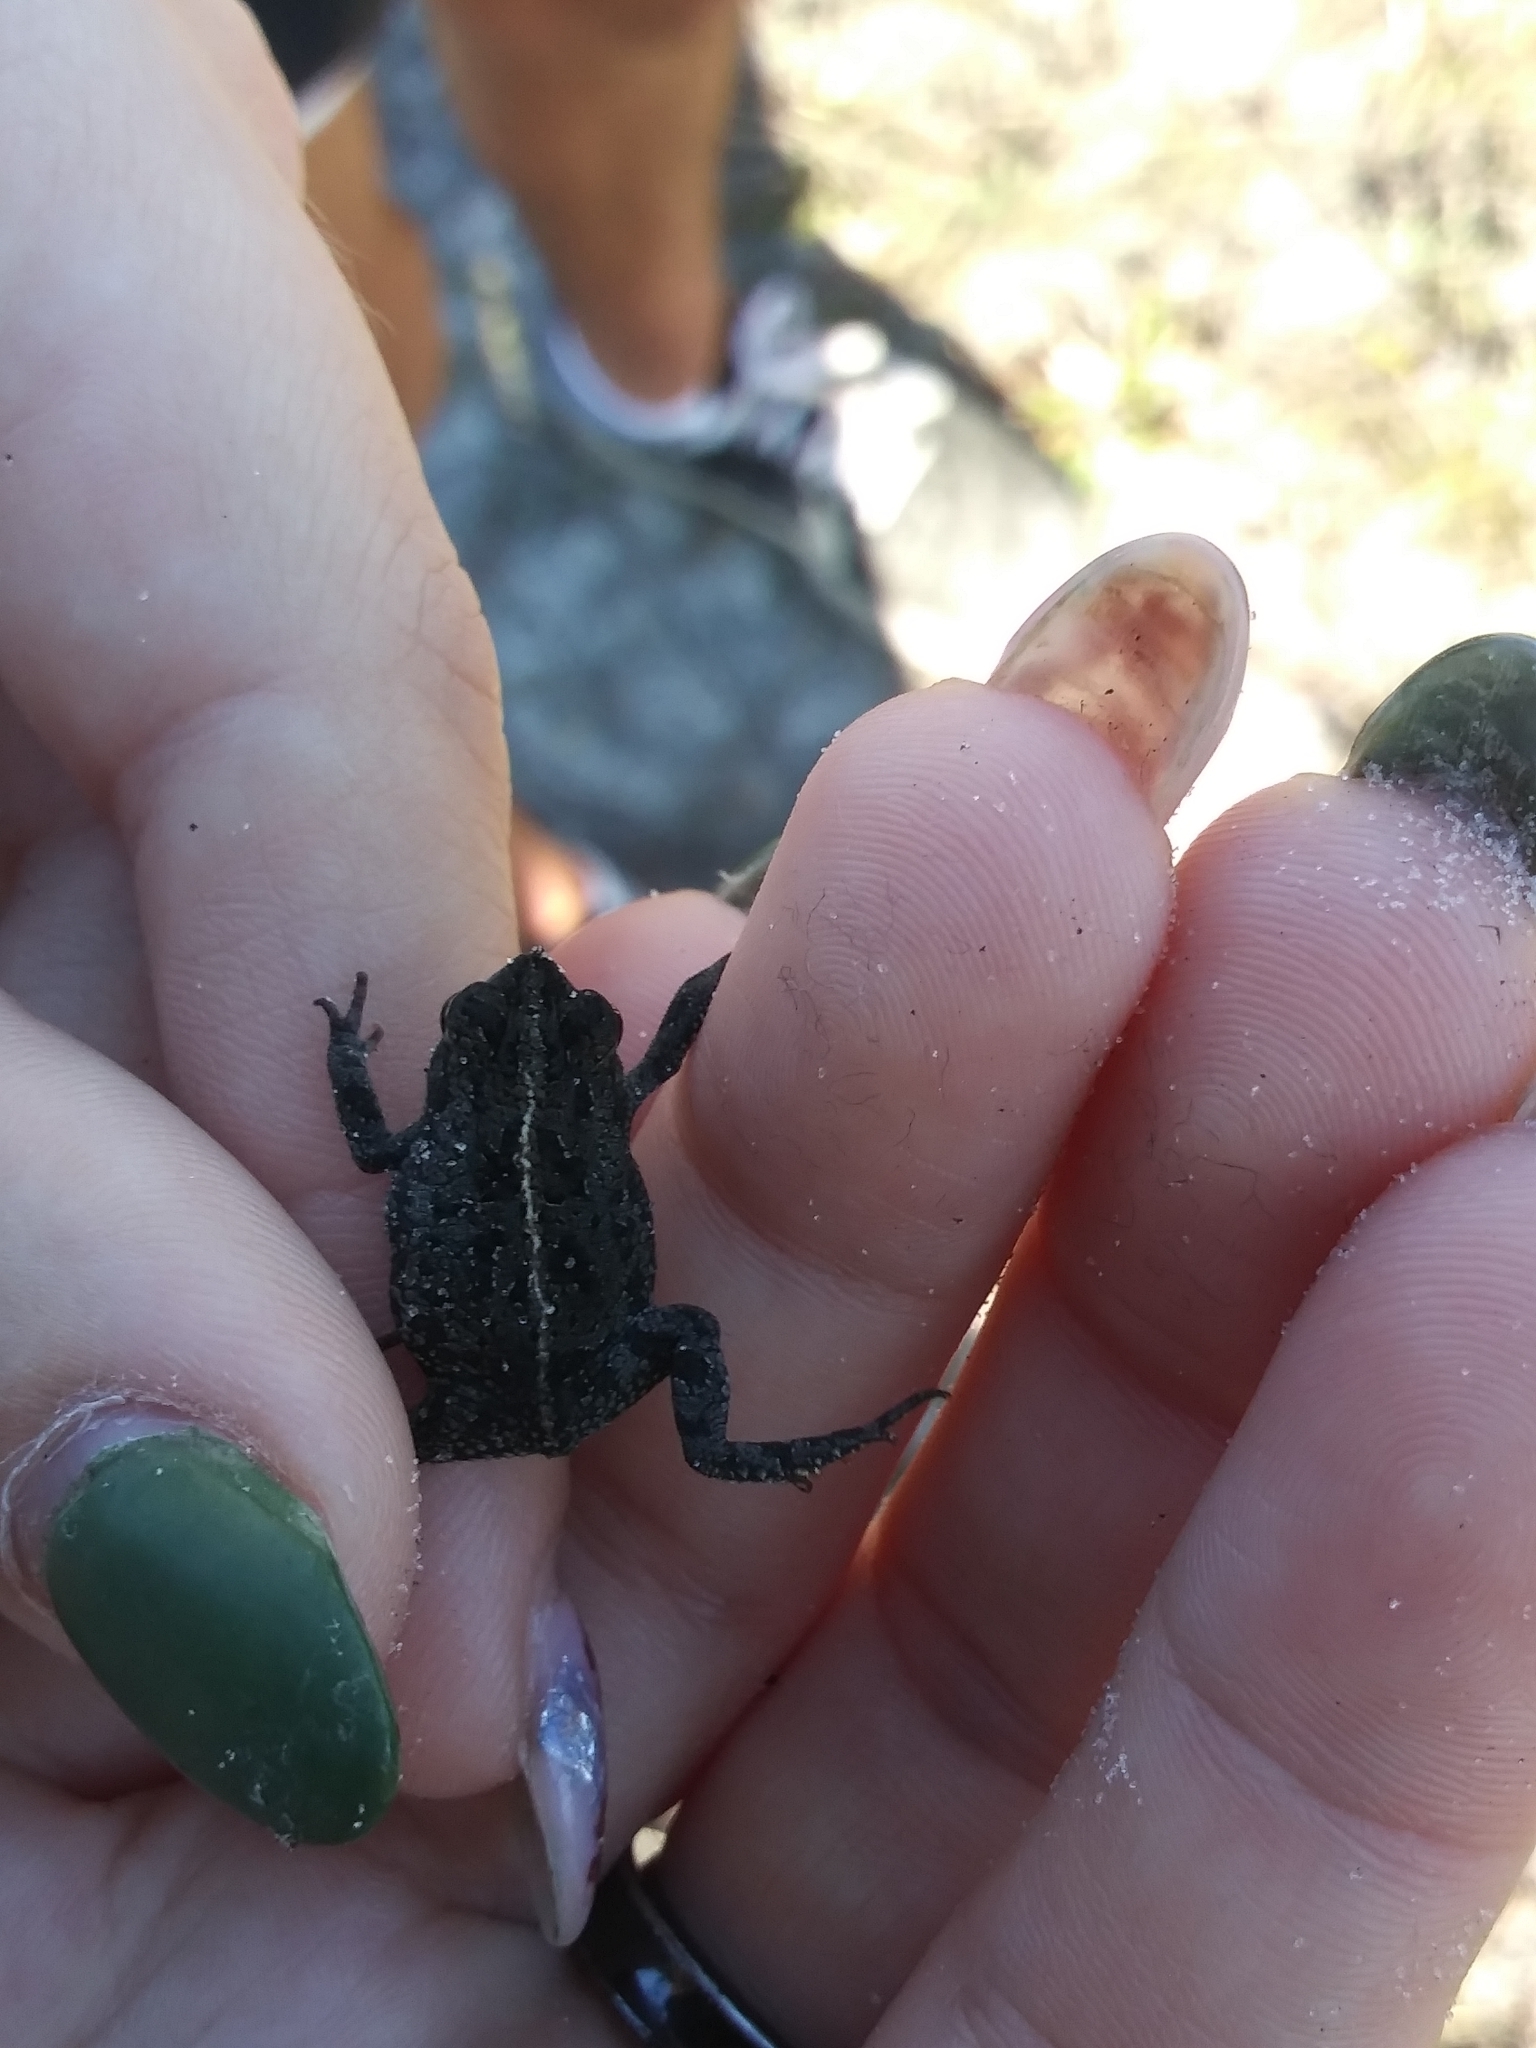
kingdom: Animalia
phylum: Chordata
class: Amphibia
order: Anura
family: Bufonidae
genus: Anaxyrus
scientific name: Anaxyrus quercicus
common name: Oak toad
